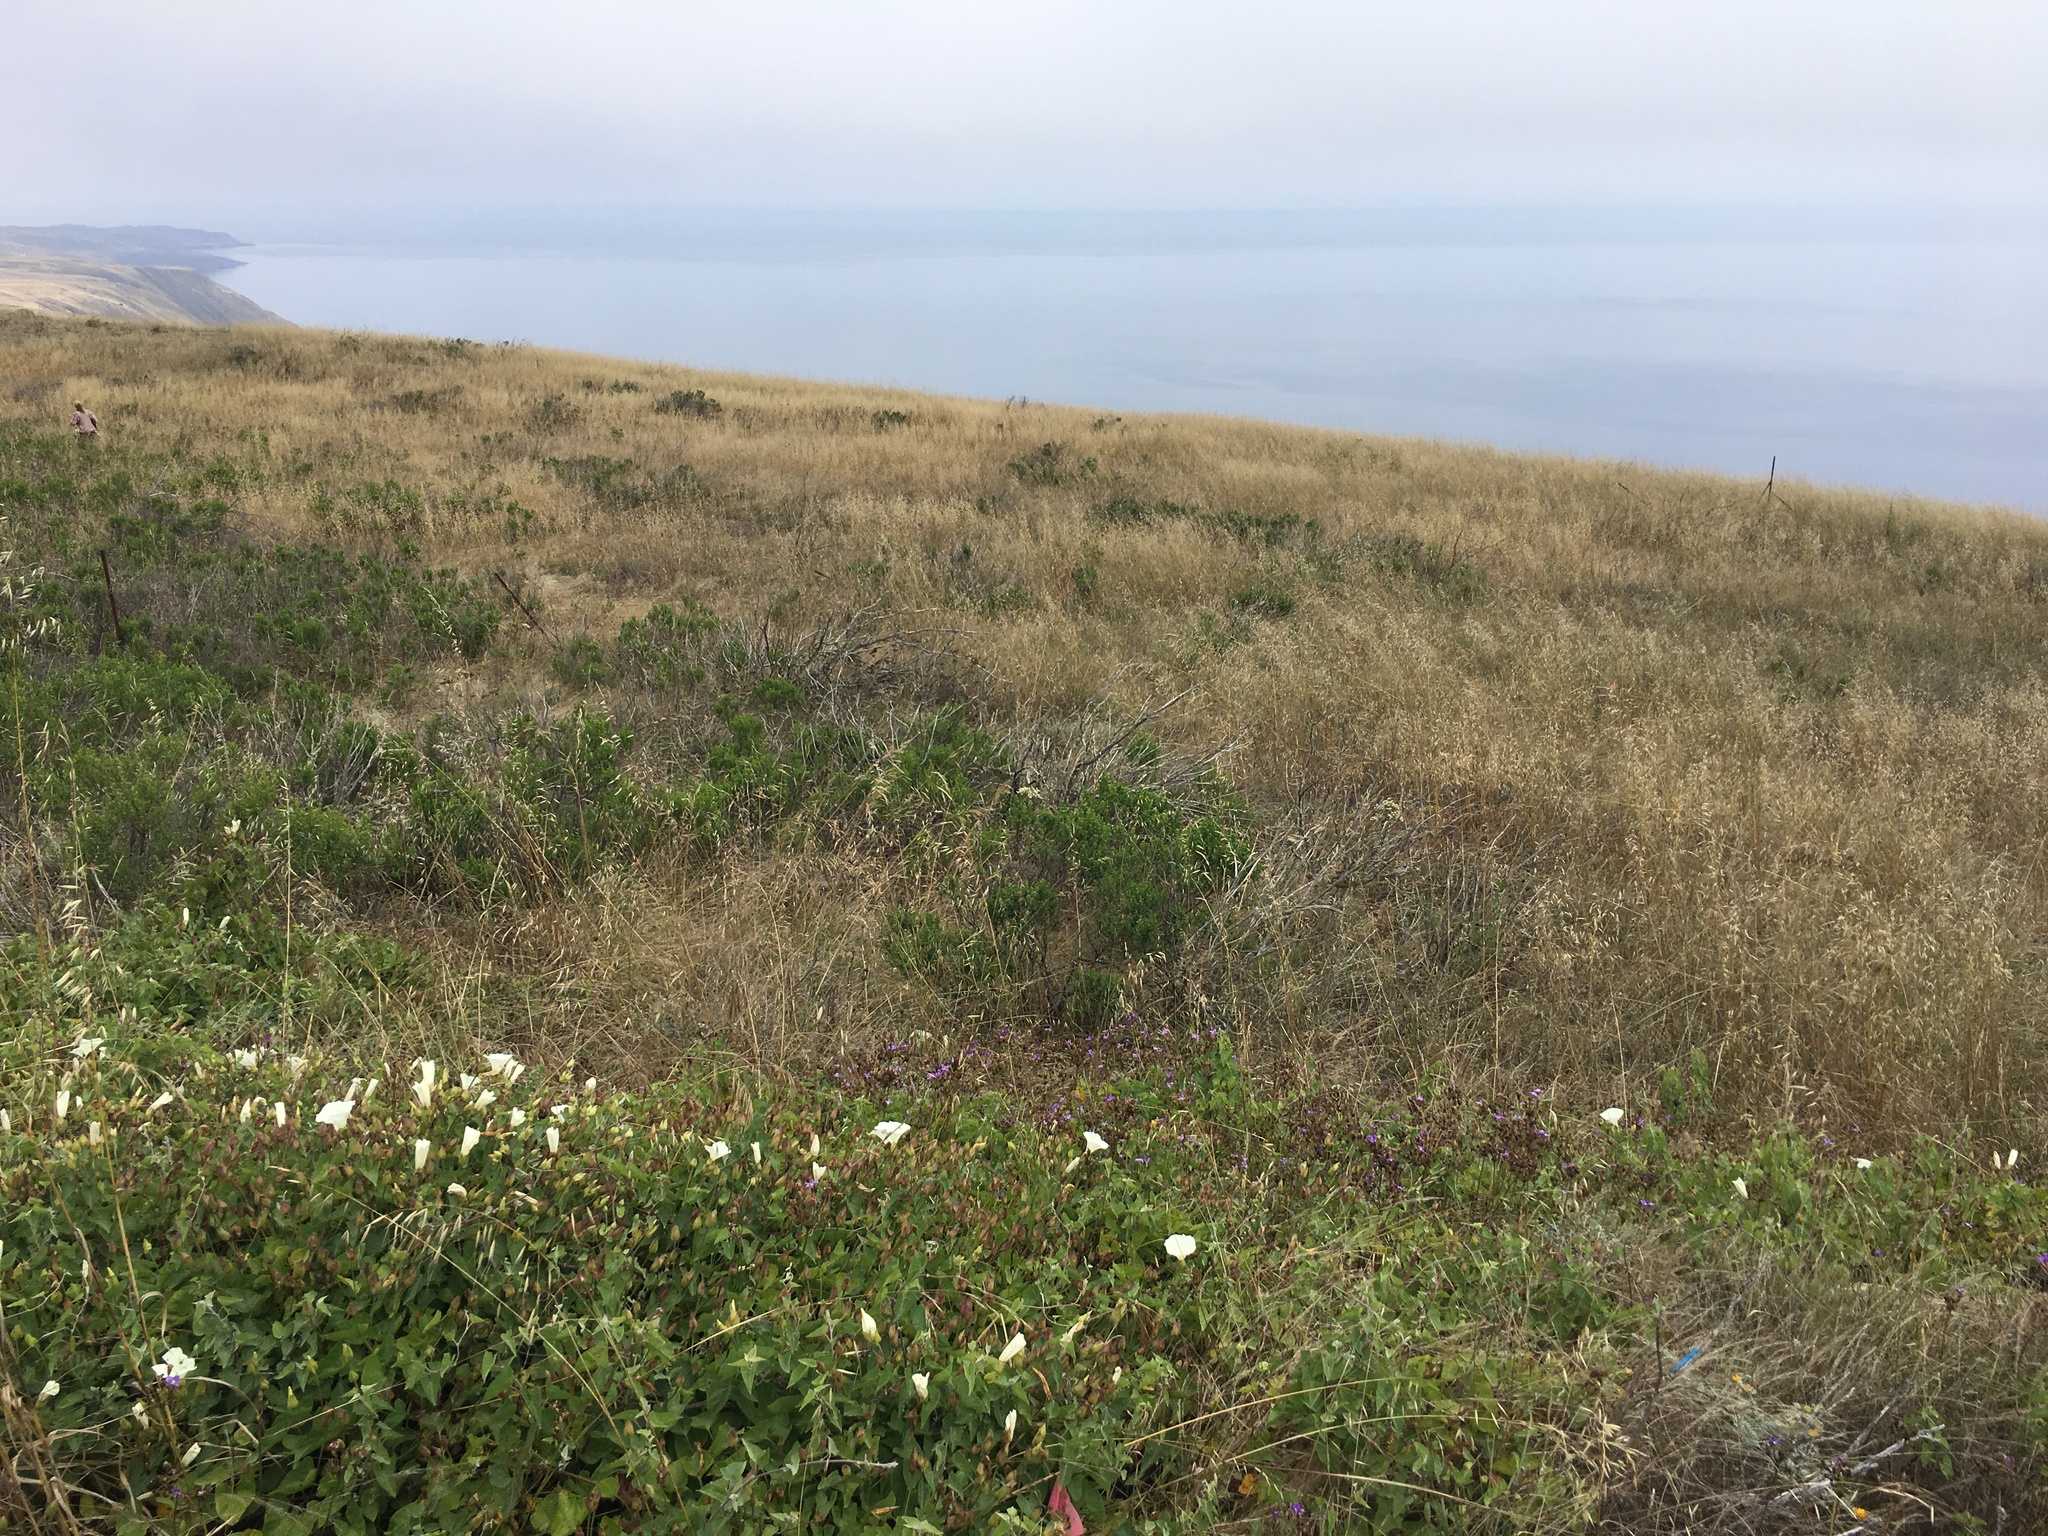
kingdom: Plantae
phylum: Tracheophyta
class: Liliopsida
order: Asparagales
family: Asparagaceae
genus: Brodiaea
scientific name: Brodiaea kinkiensis
